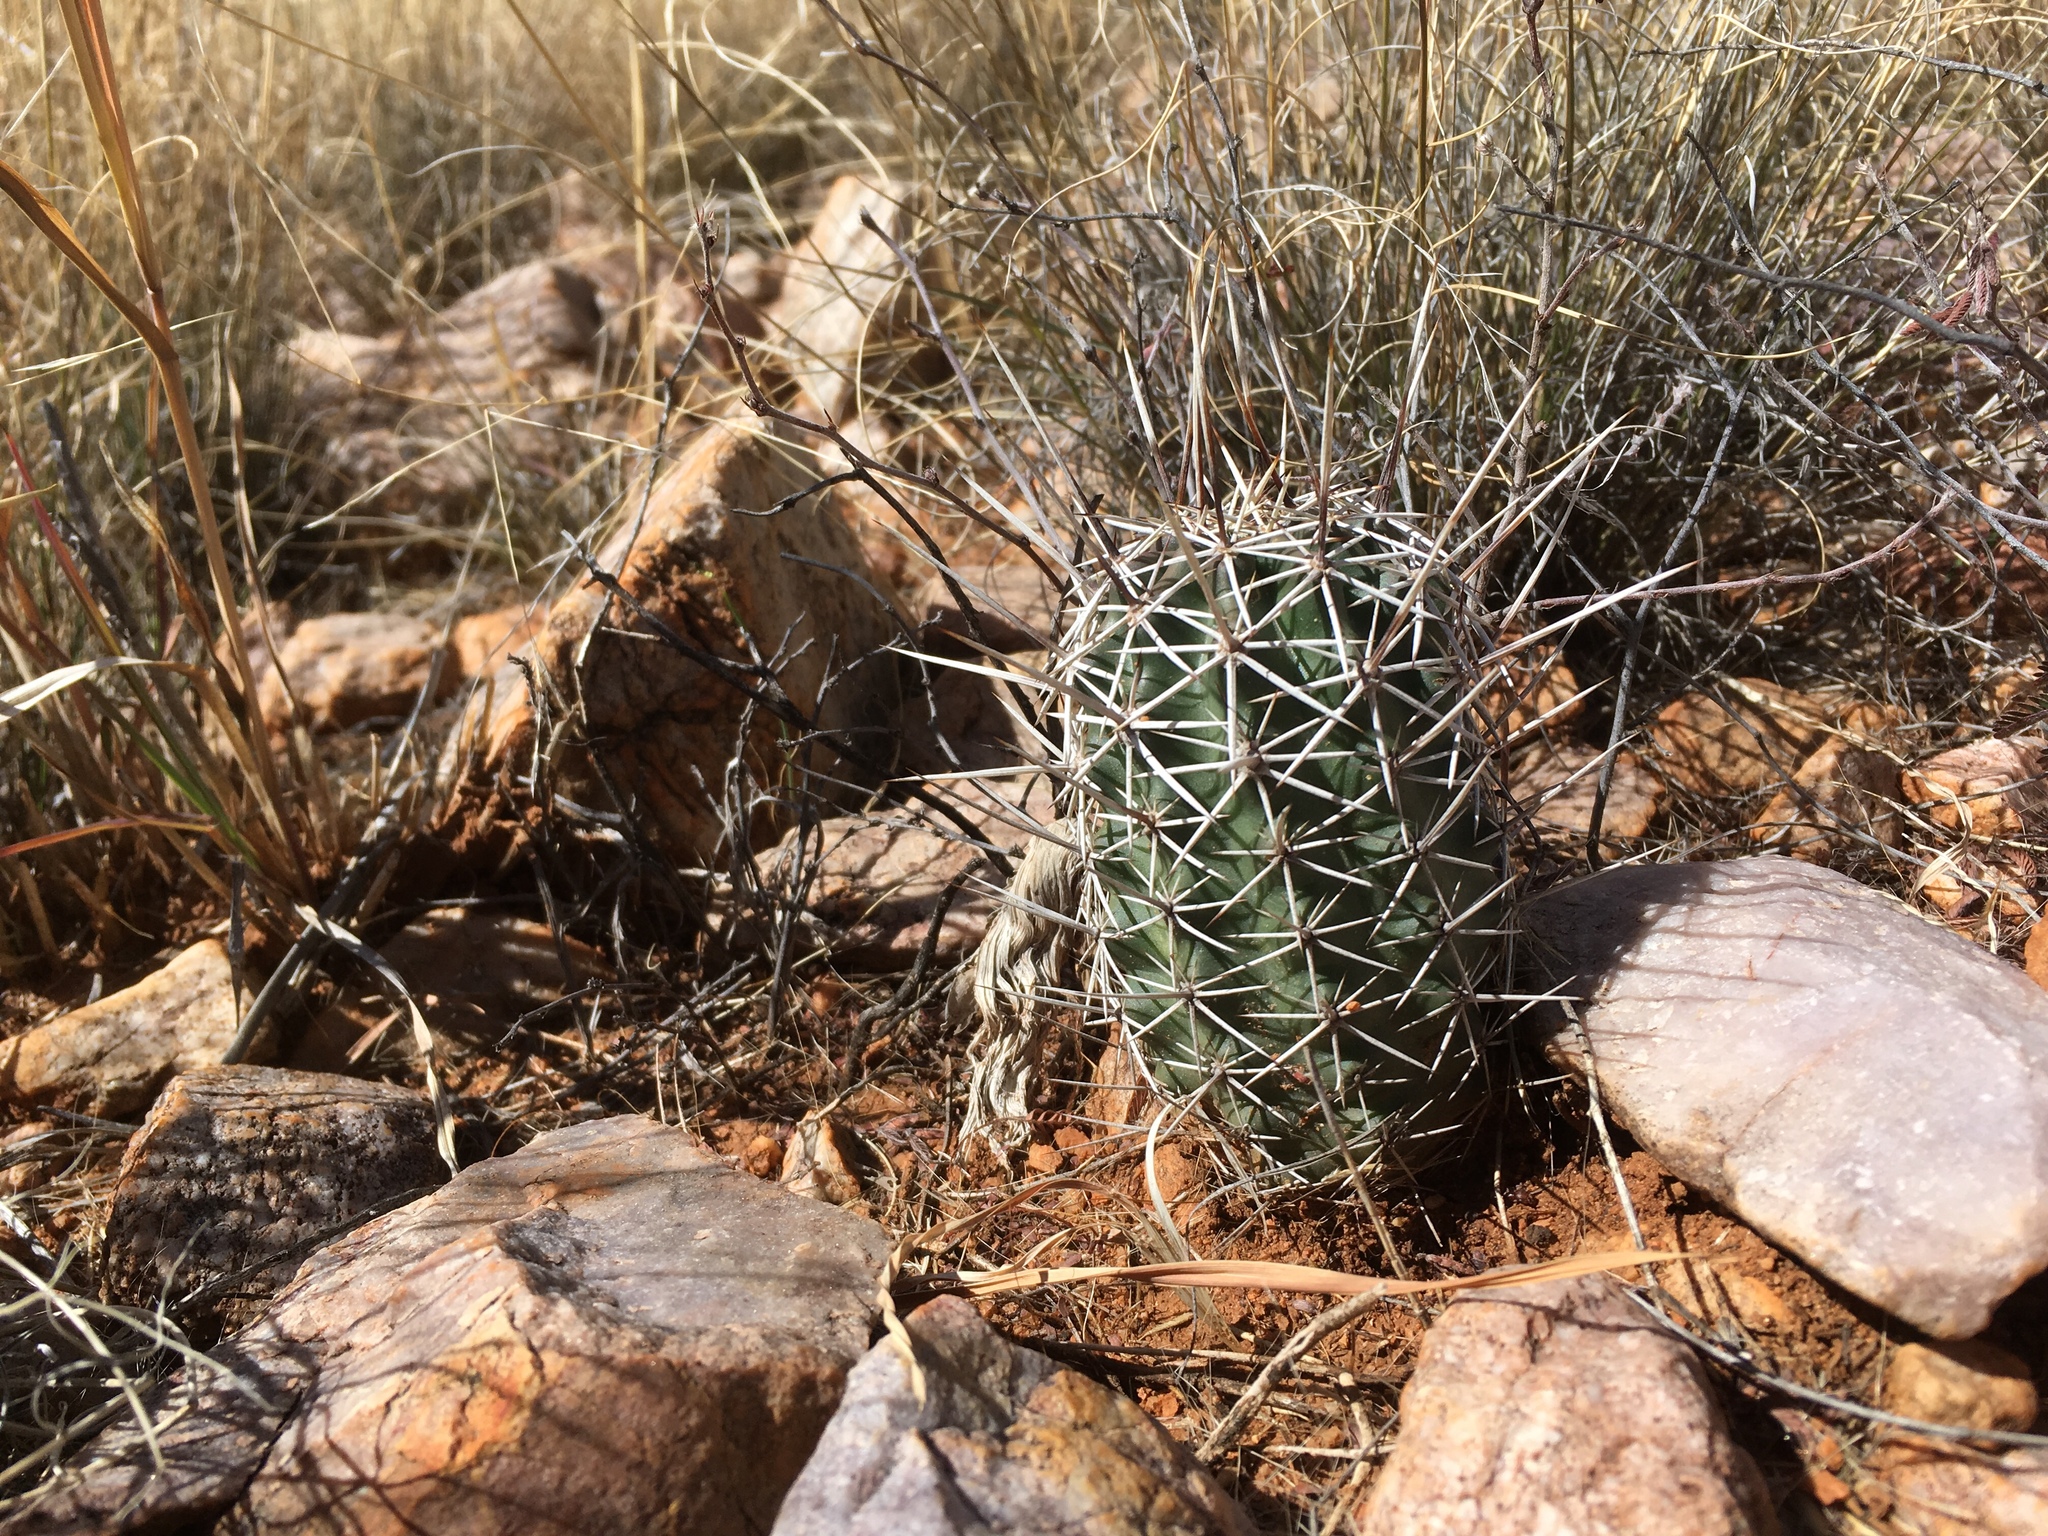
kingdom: Plantae
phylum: Tracheophyta
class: Magnoliopsida
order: Caryophyllales
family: Cactaceae
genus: Echinocereus
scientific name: Echinocereus fendleri
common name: Fendler's hedgehog cactus
